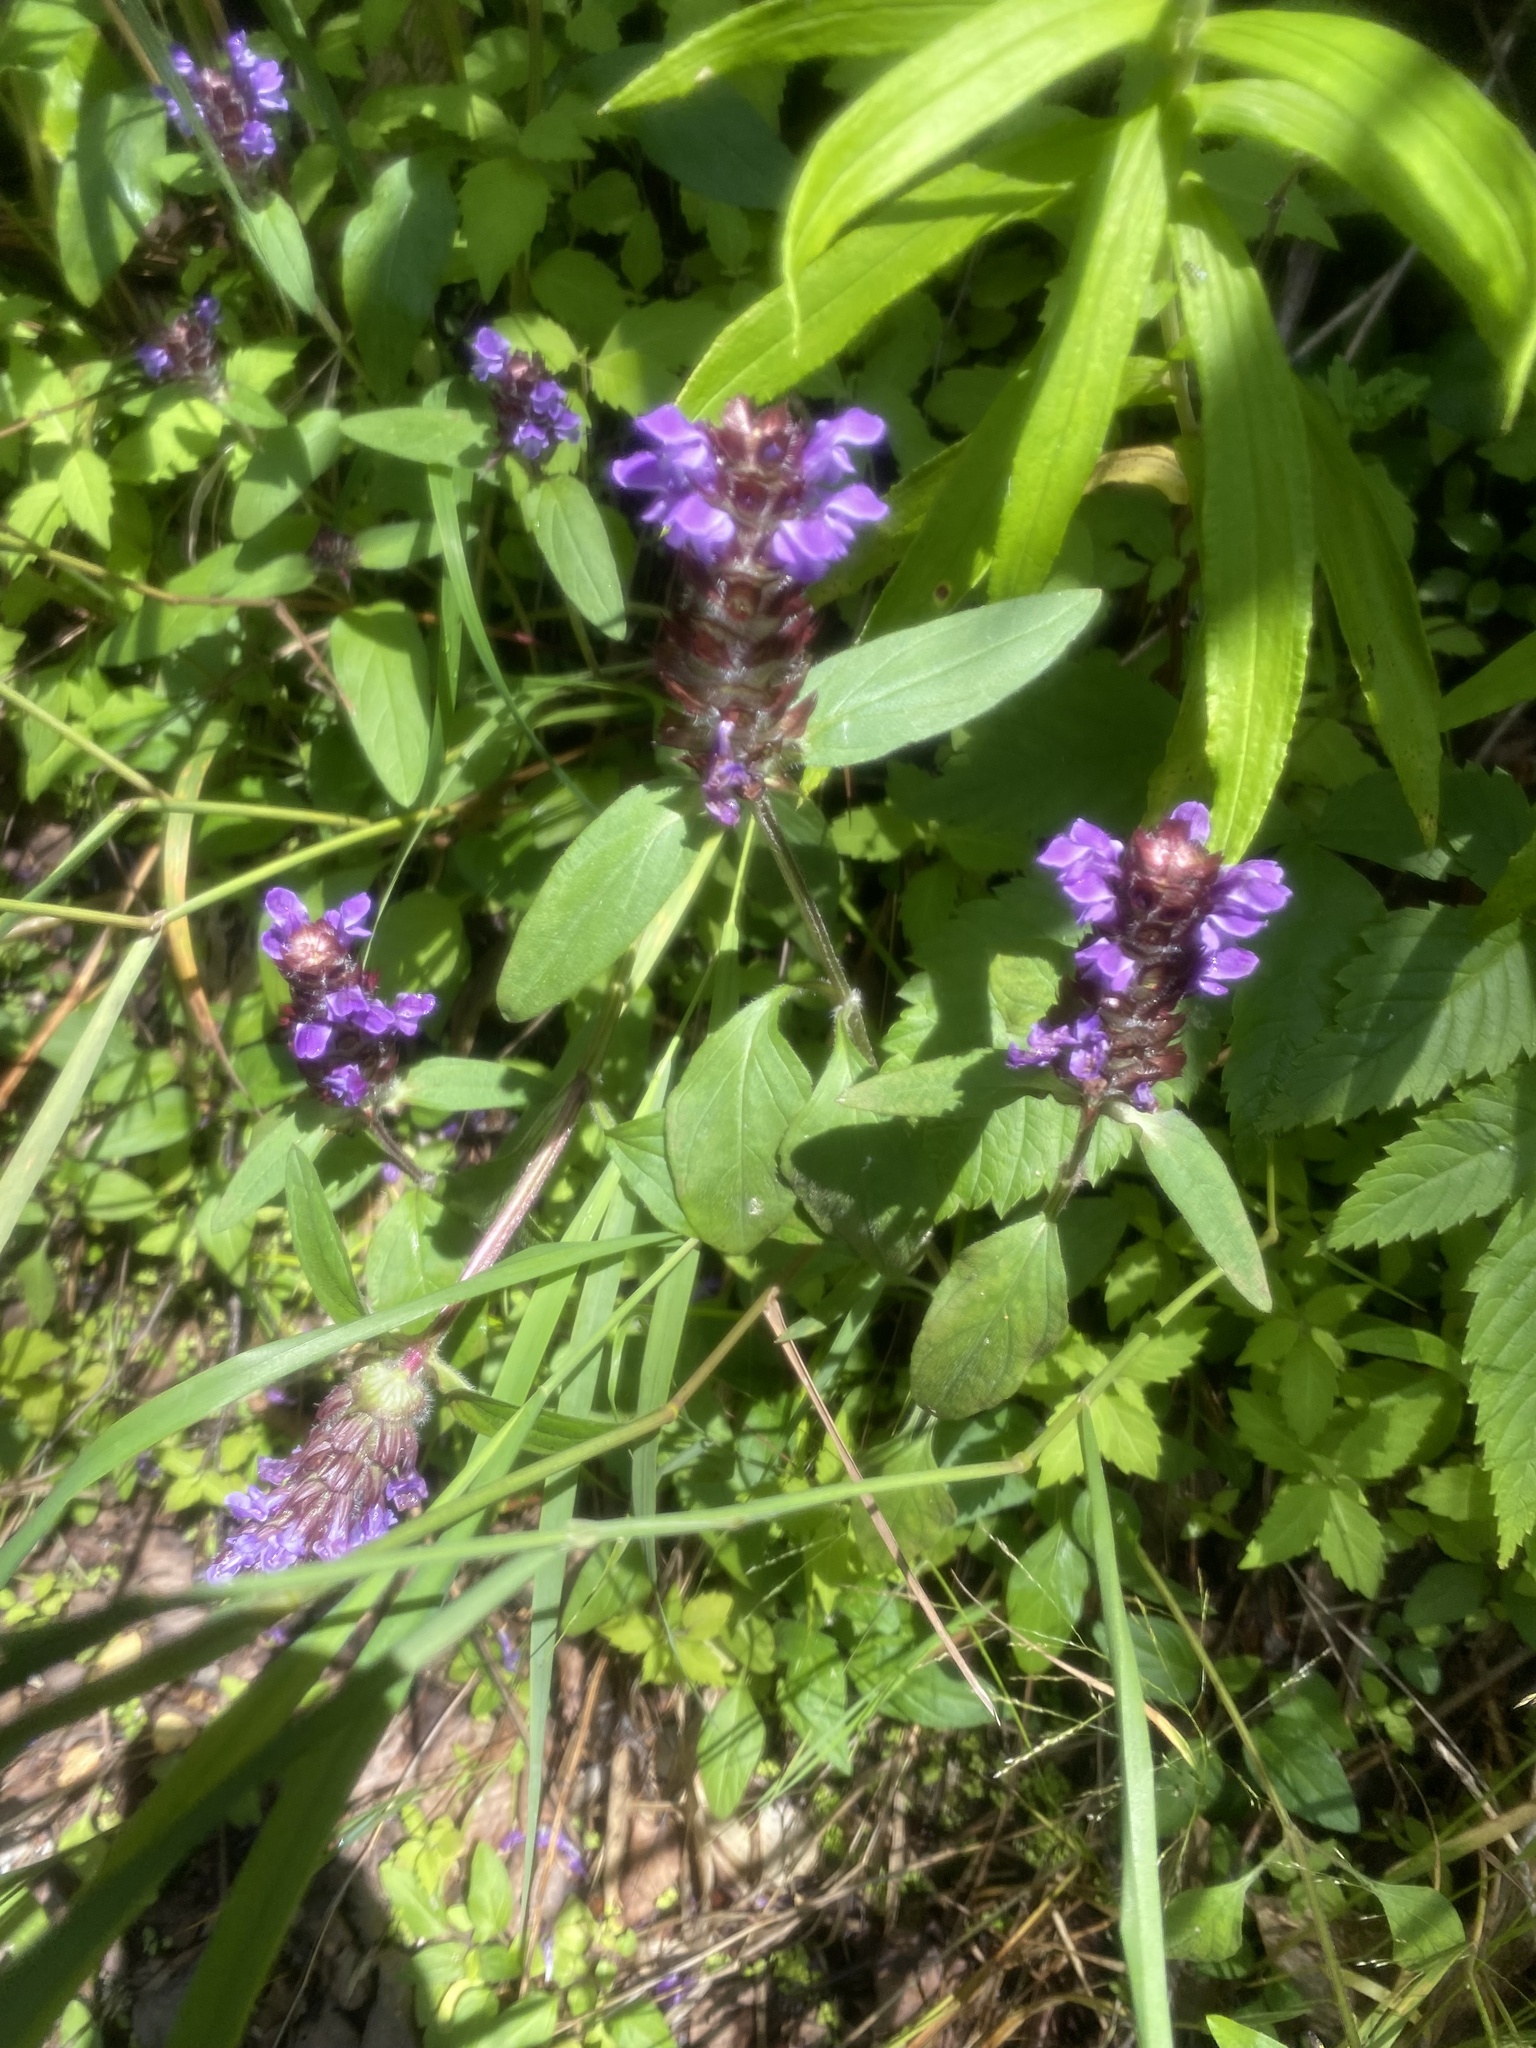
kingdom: Plantae
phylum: Tracheophyta
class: Magnoliopsida
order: Lamiales
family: Lamiaceae
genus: Prunella
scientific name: Prunella vulgaris
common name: Heal-all
